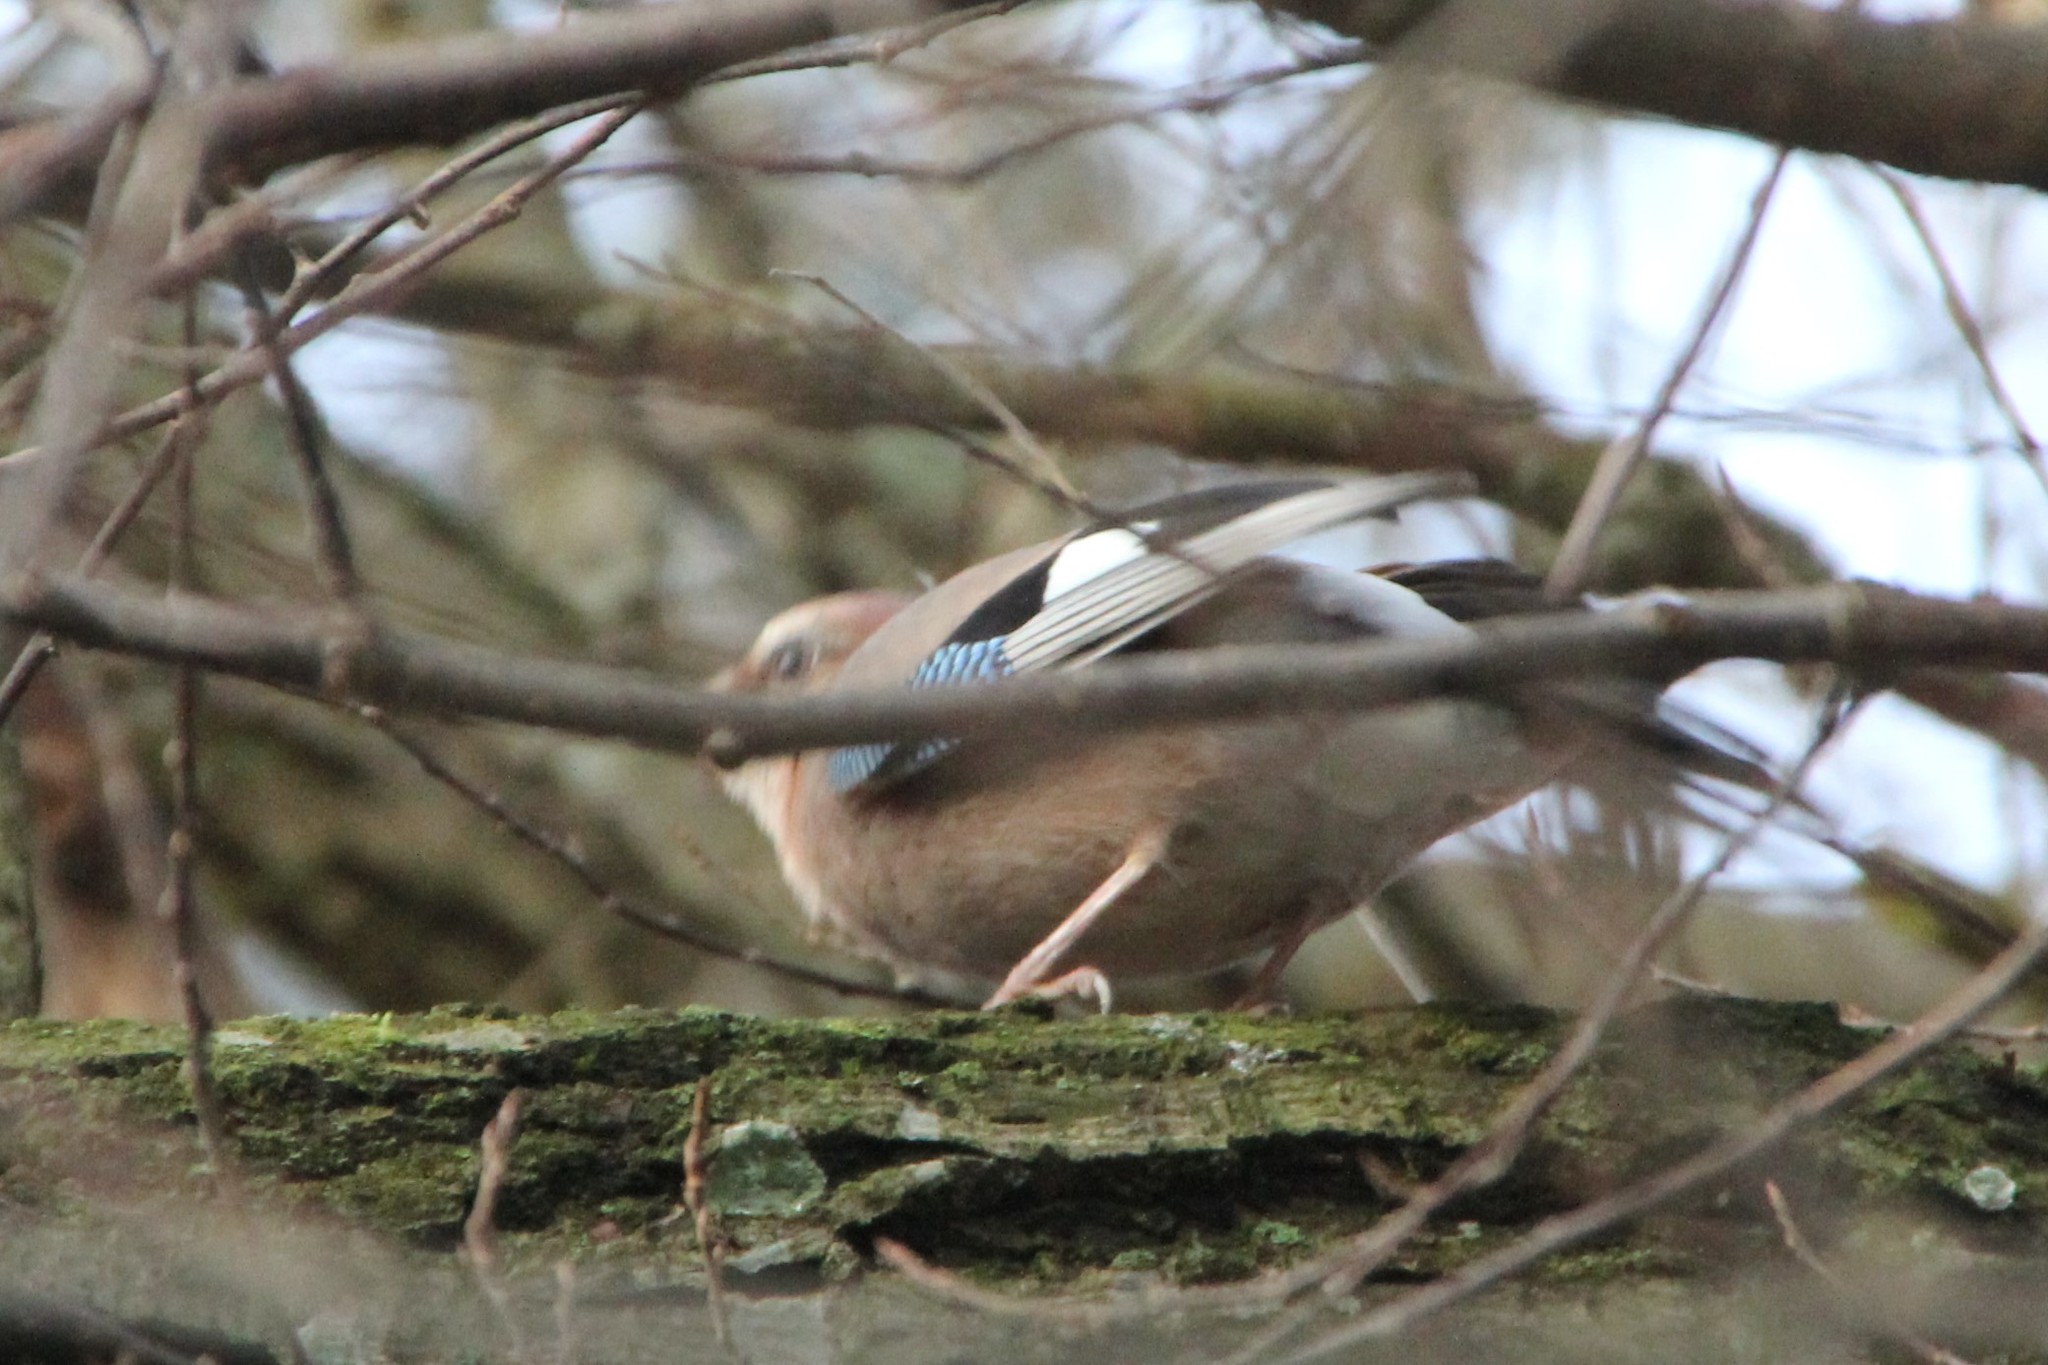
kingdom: Animalia
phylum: Chordata
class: Aves
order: Passeriformes
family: Corvidae
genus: Garrulus
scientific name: Garrulus glandarius
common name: Eurasian jay
